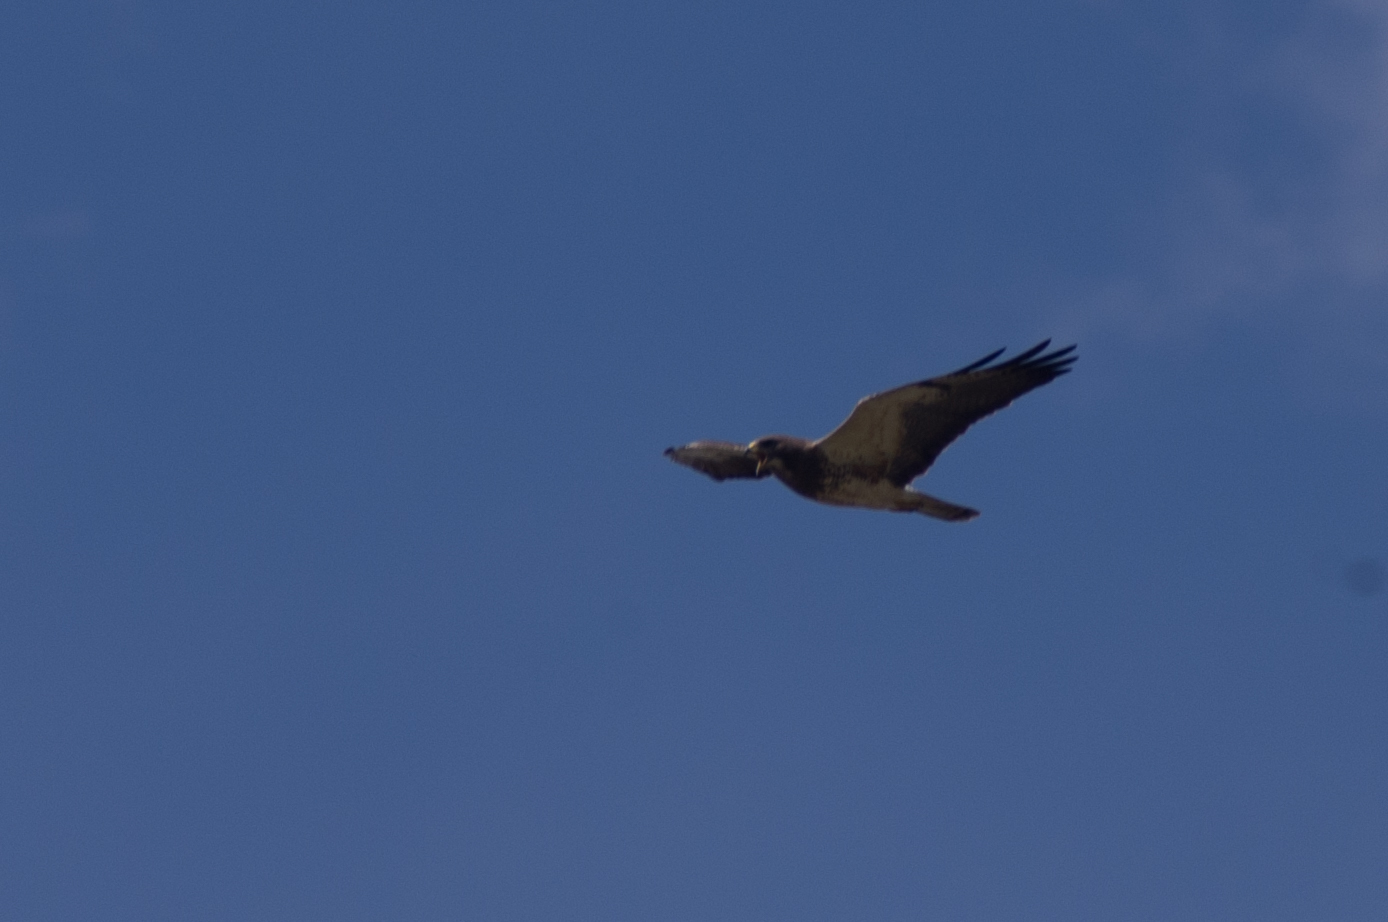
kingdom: Animalia
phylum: Chordata
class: Aves
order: Accipitriformes
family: Accipitridae
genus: Buteo
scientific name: Buteo swainsoni
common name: Swainson's hawk
